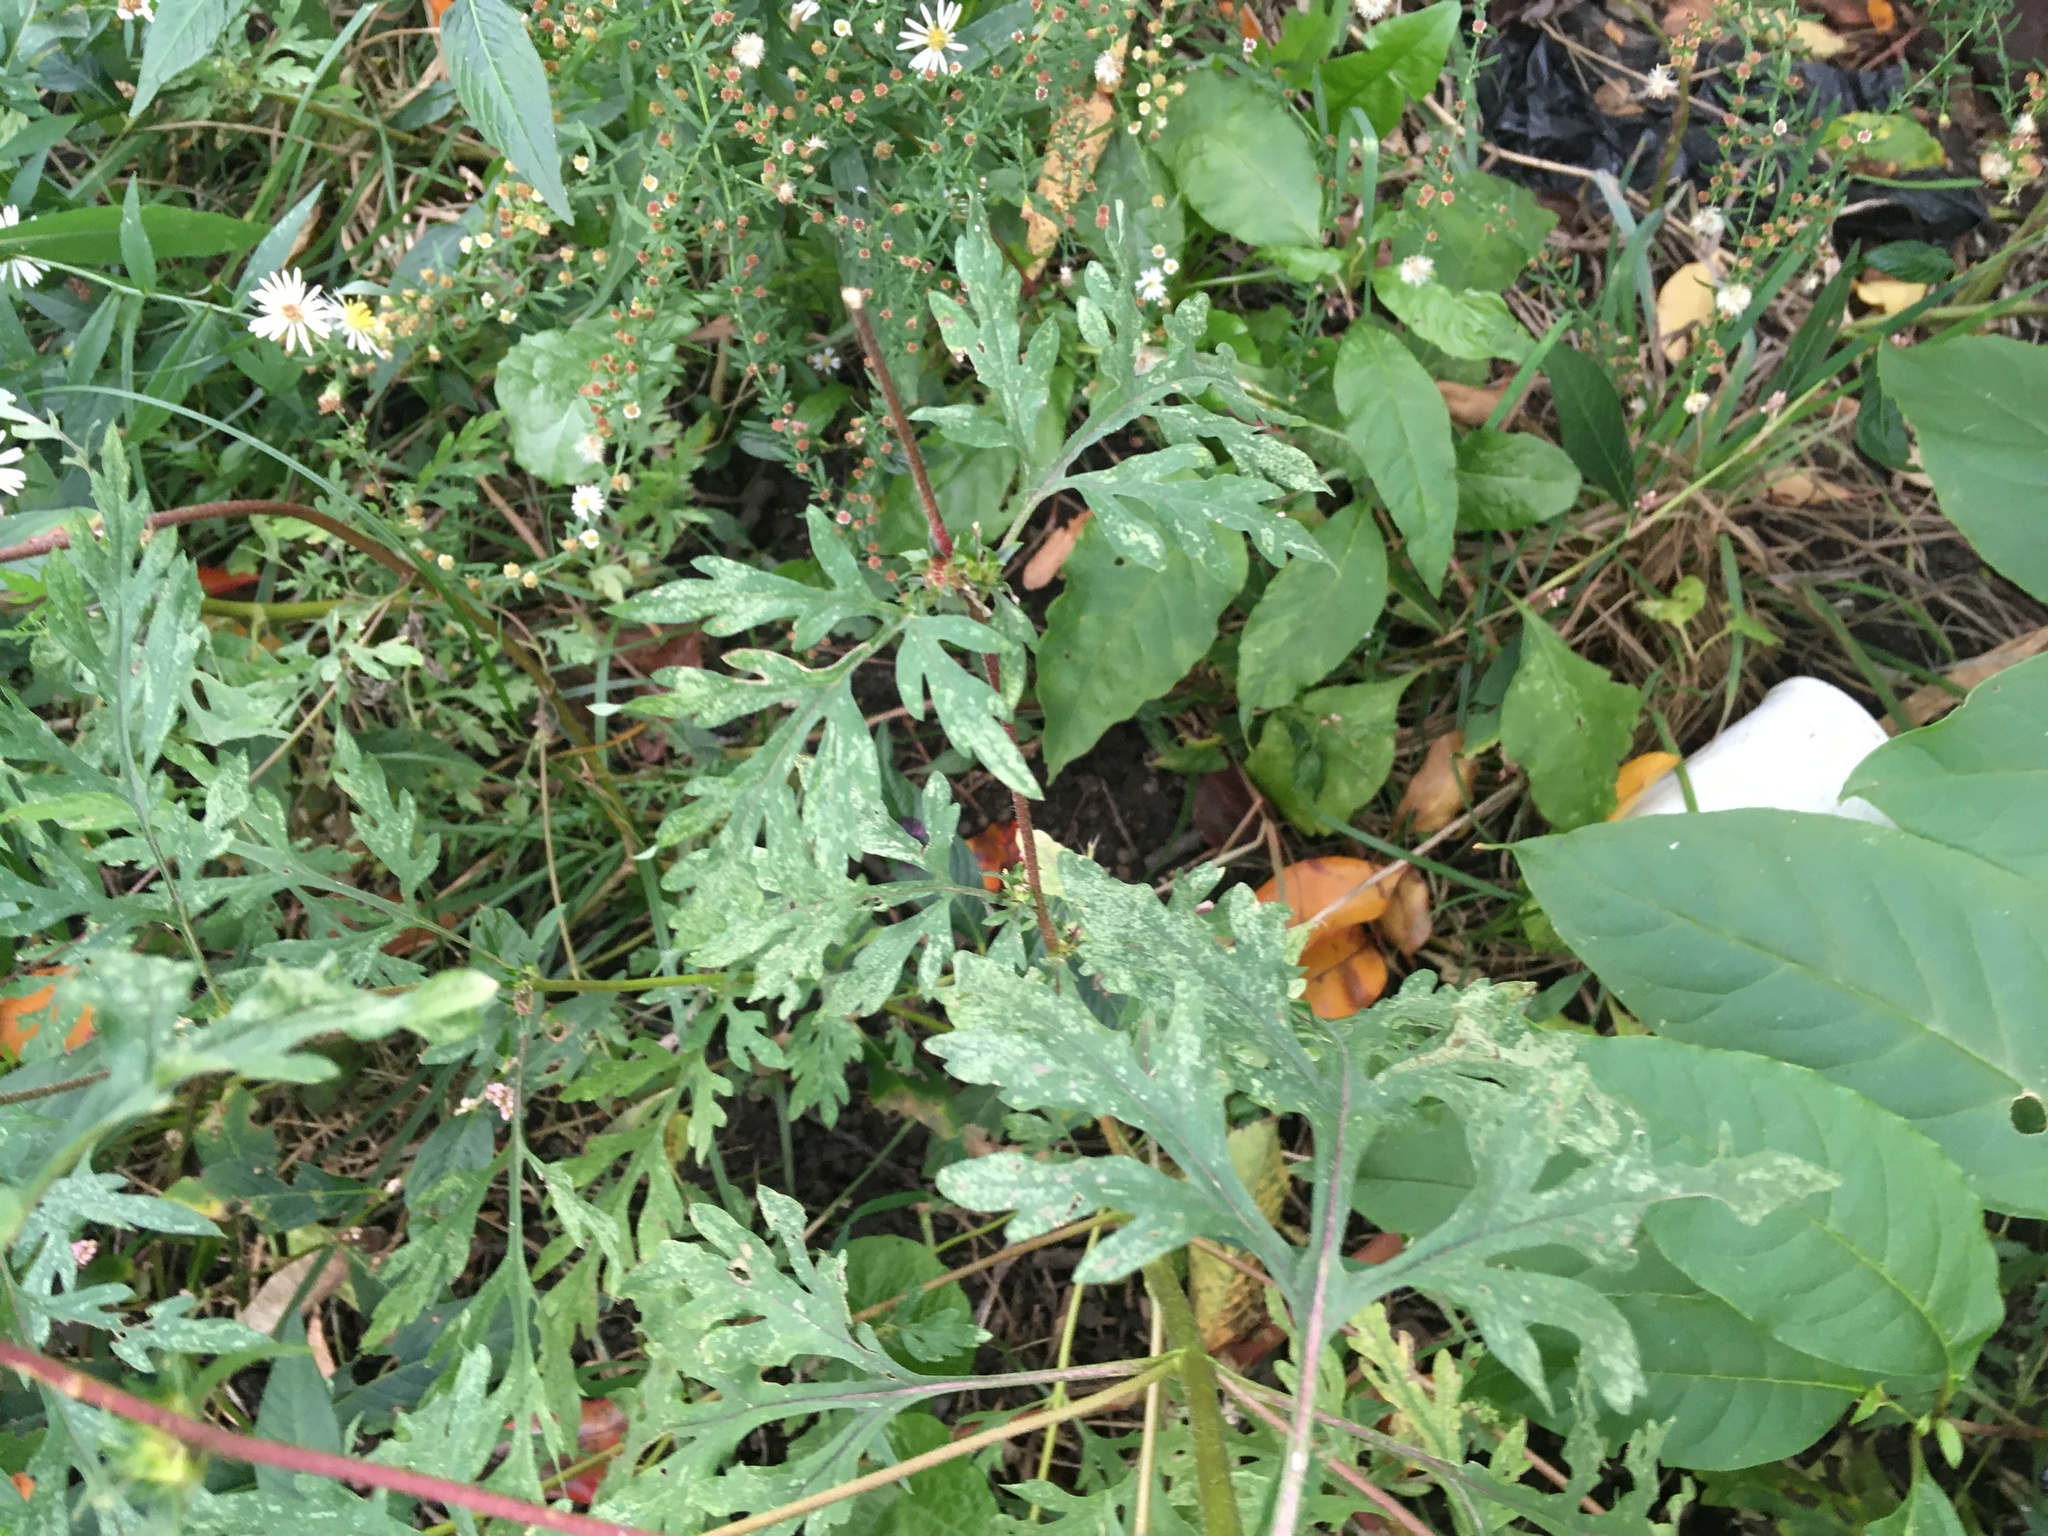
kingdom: Plantae
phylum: Tracheophyta
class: Magnoliopsida
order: Asterales
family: Asteraceae
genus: Artemisia
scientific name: Artemisia vulgaris
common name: Mugwort
